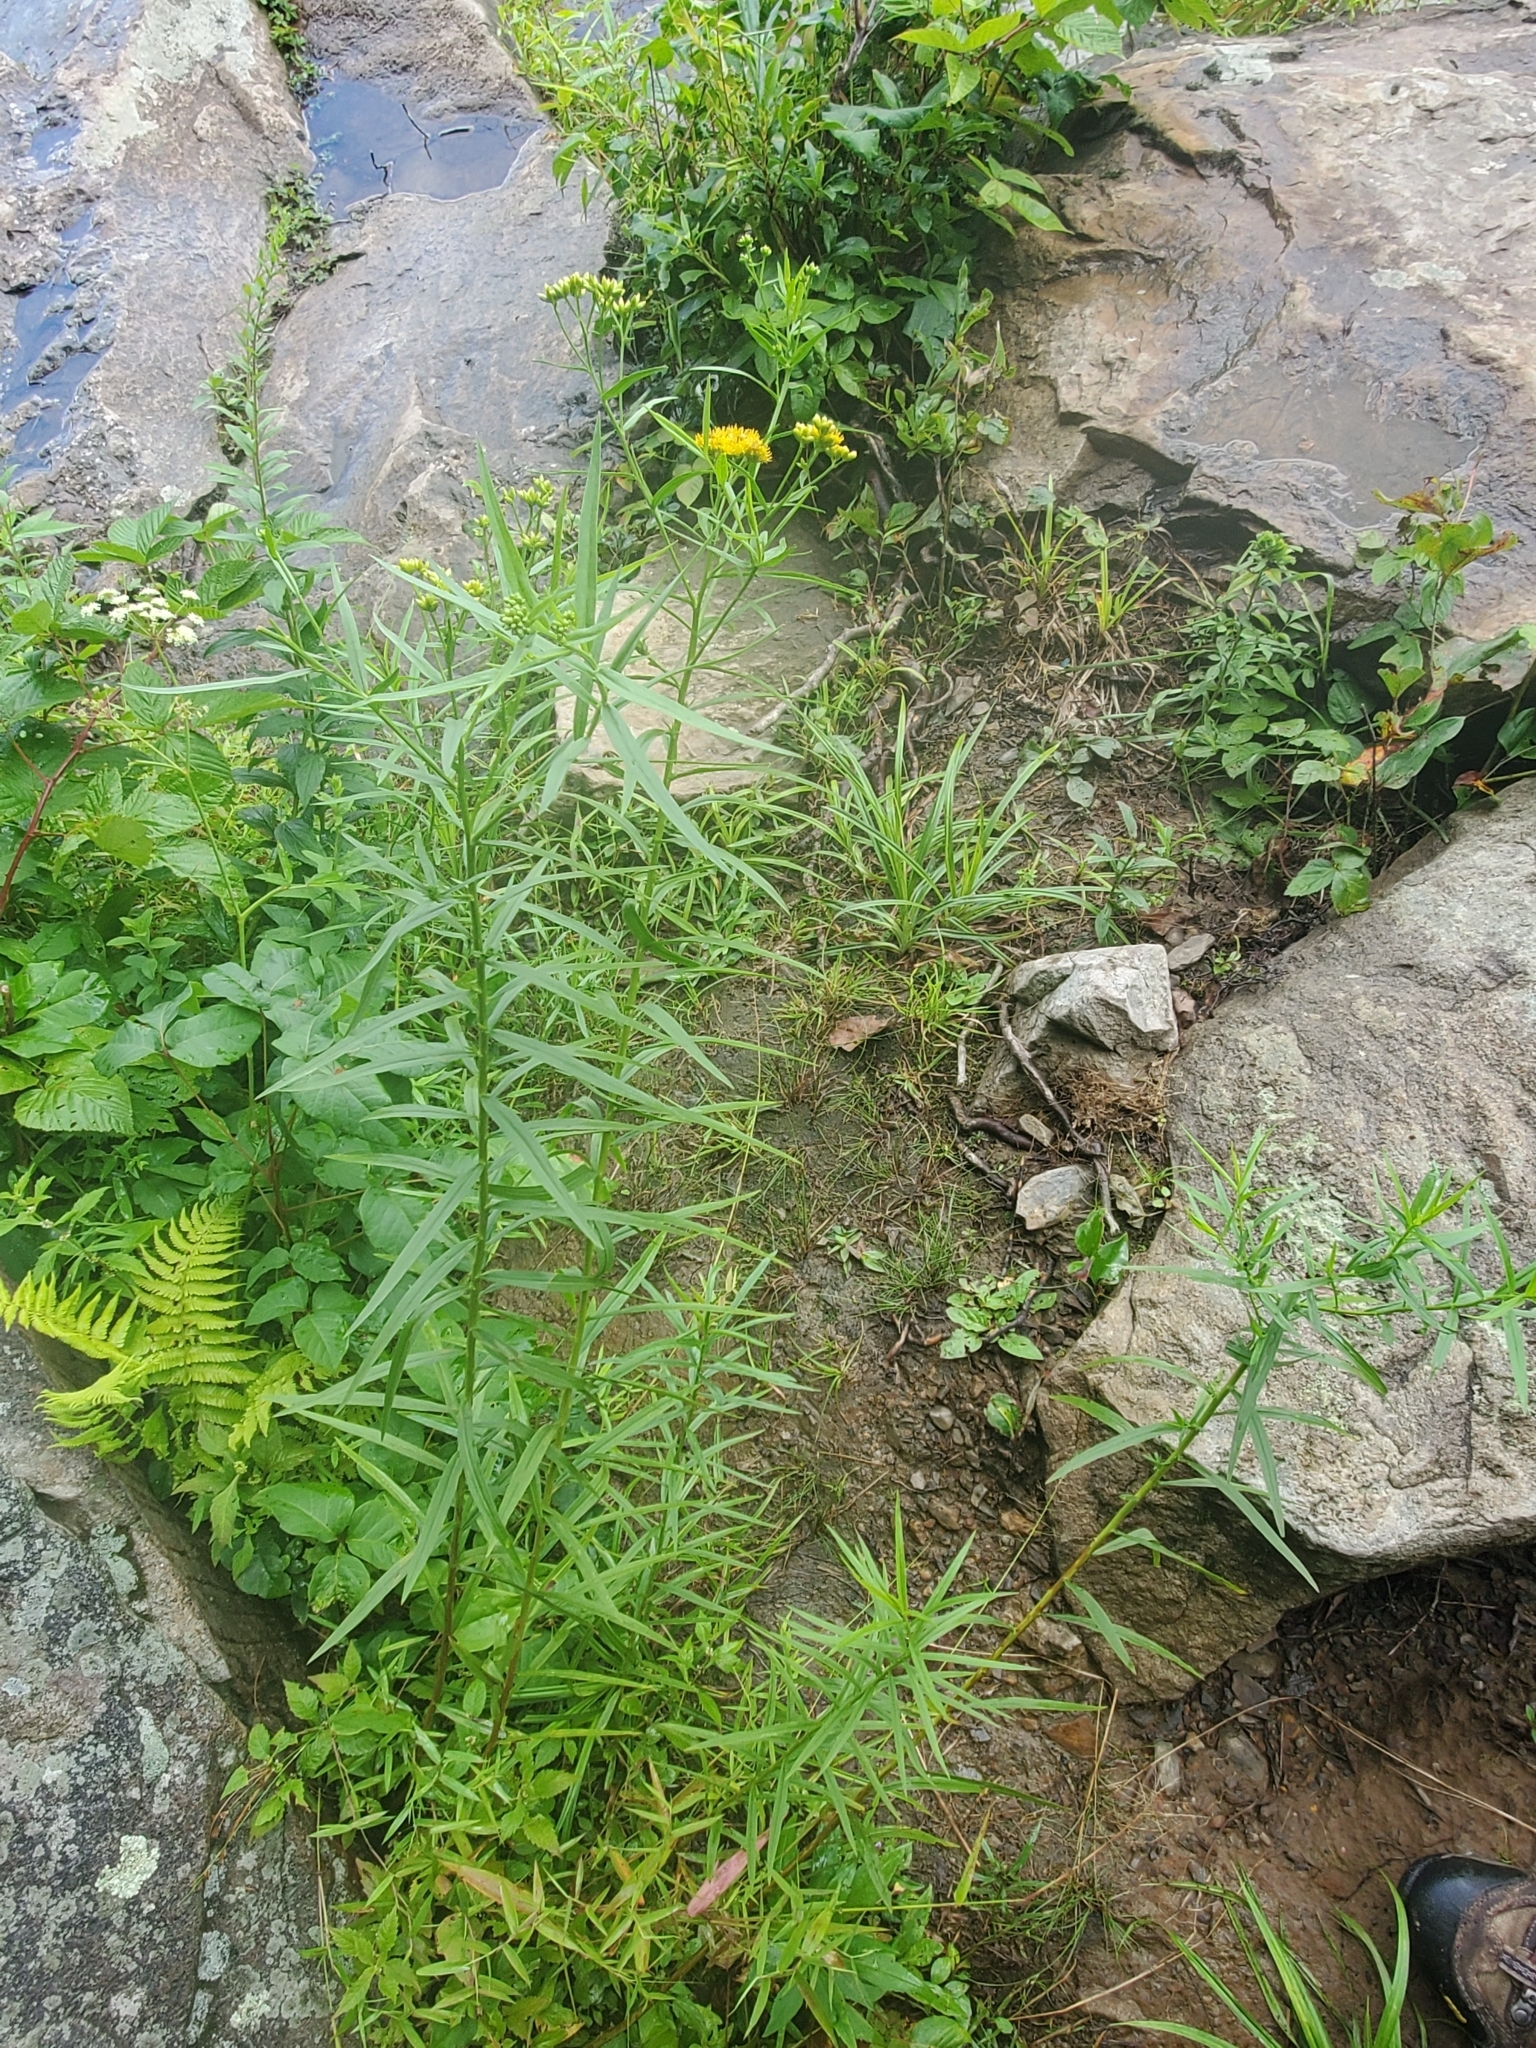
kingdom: Plantae
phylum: Tracheophyta
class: Magnoliopsida
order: Asterales
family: Asteraceae
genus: Euthamia
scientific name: Euthamia graminifolia
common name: Common goldentop
